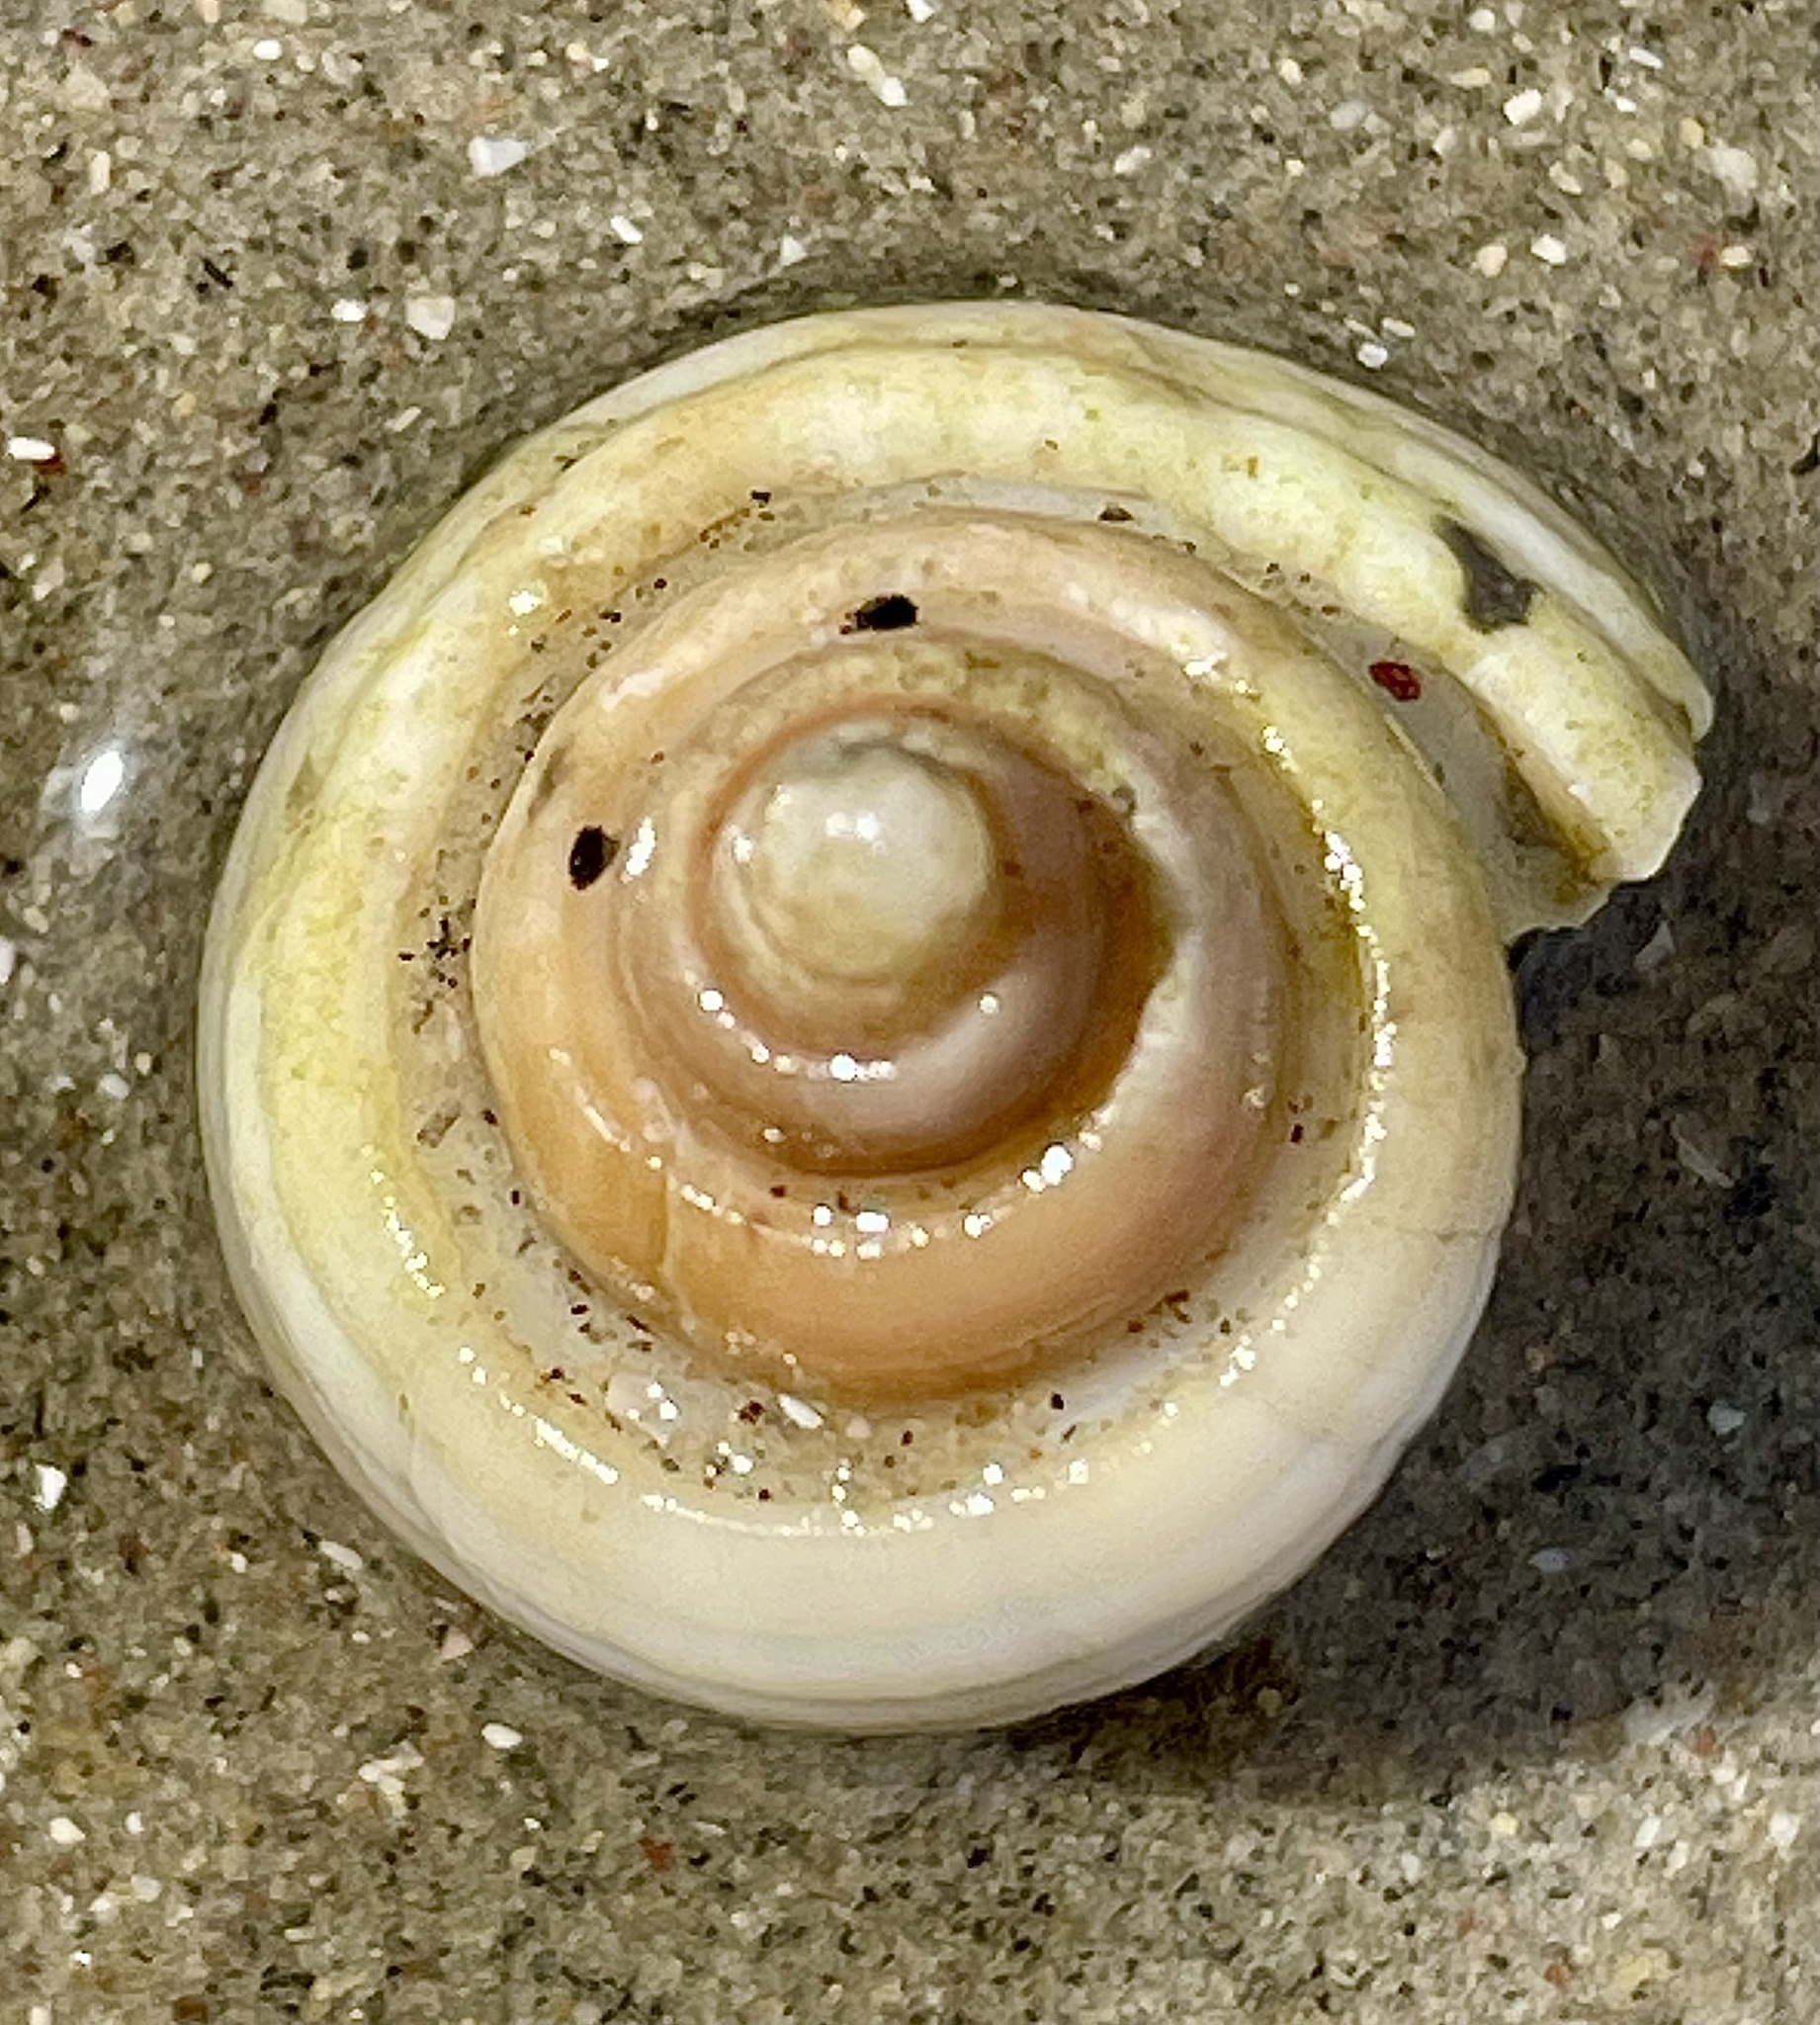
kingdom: Animalia
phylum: Mollusca
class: Gastropoda
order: Neogastropoda
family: Pseudolividae
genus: Macron
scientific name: Macron aethiops
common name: Dusky macron
